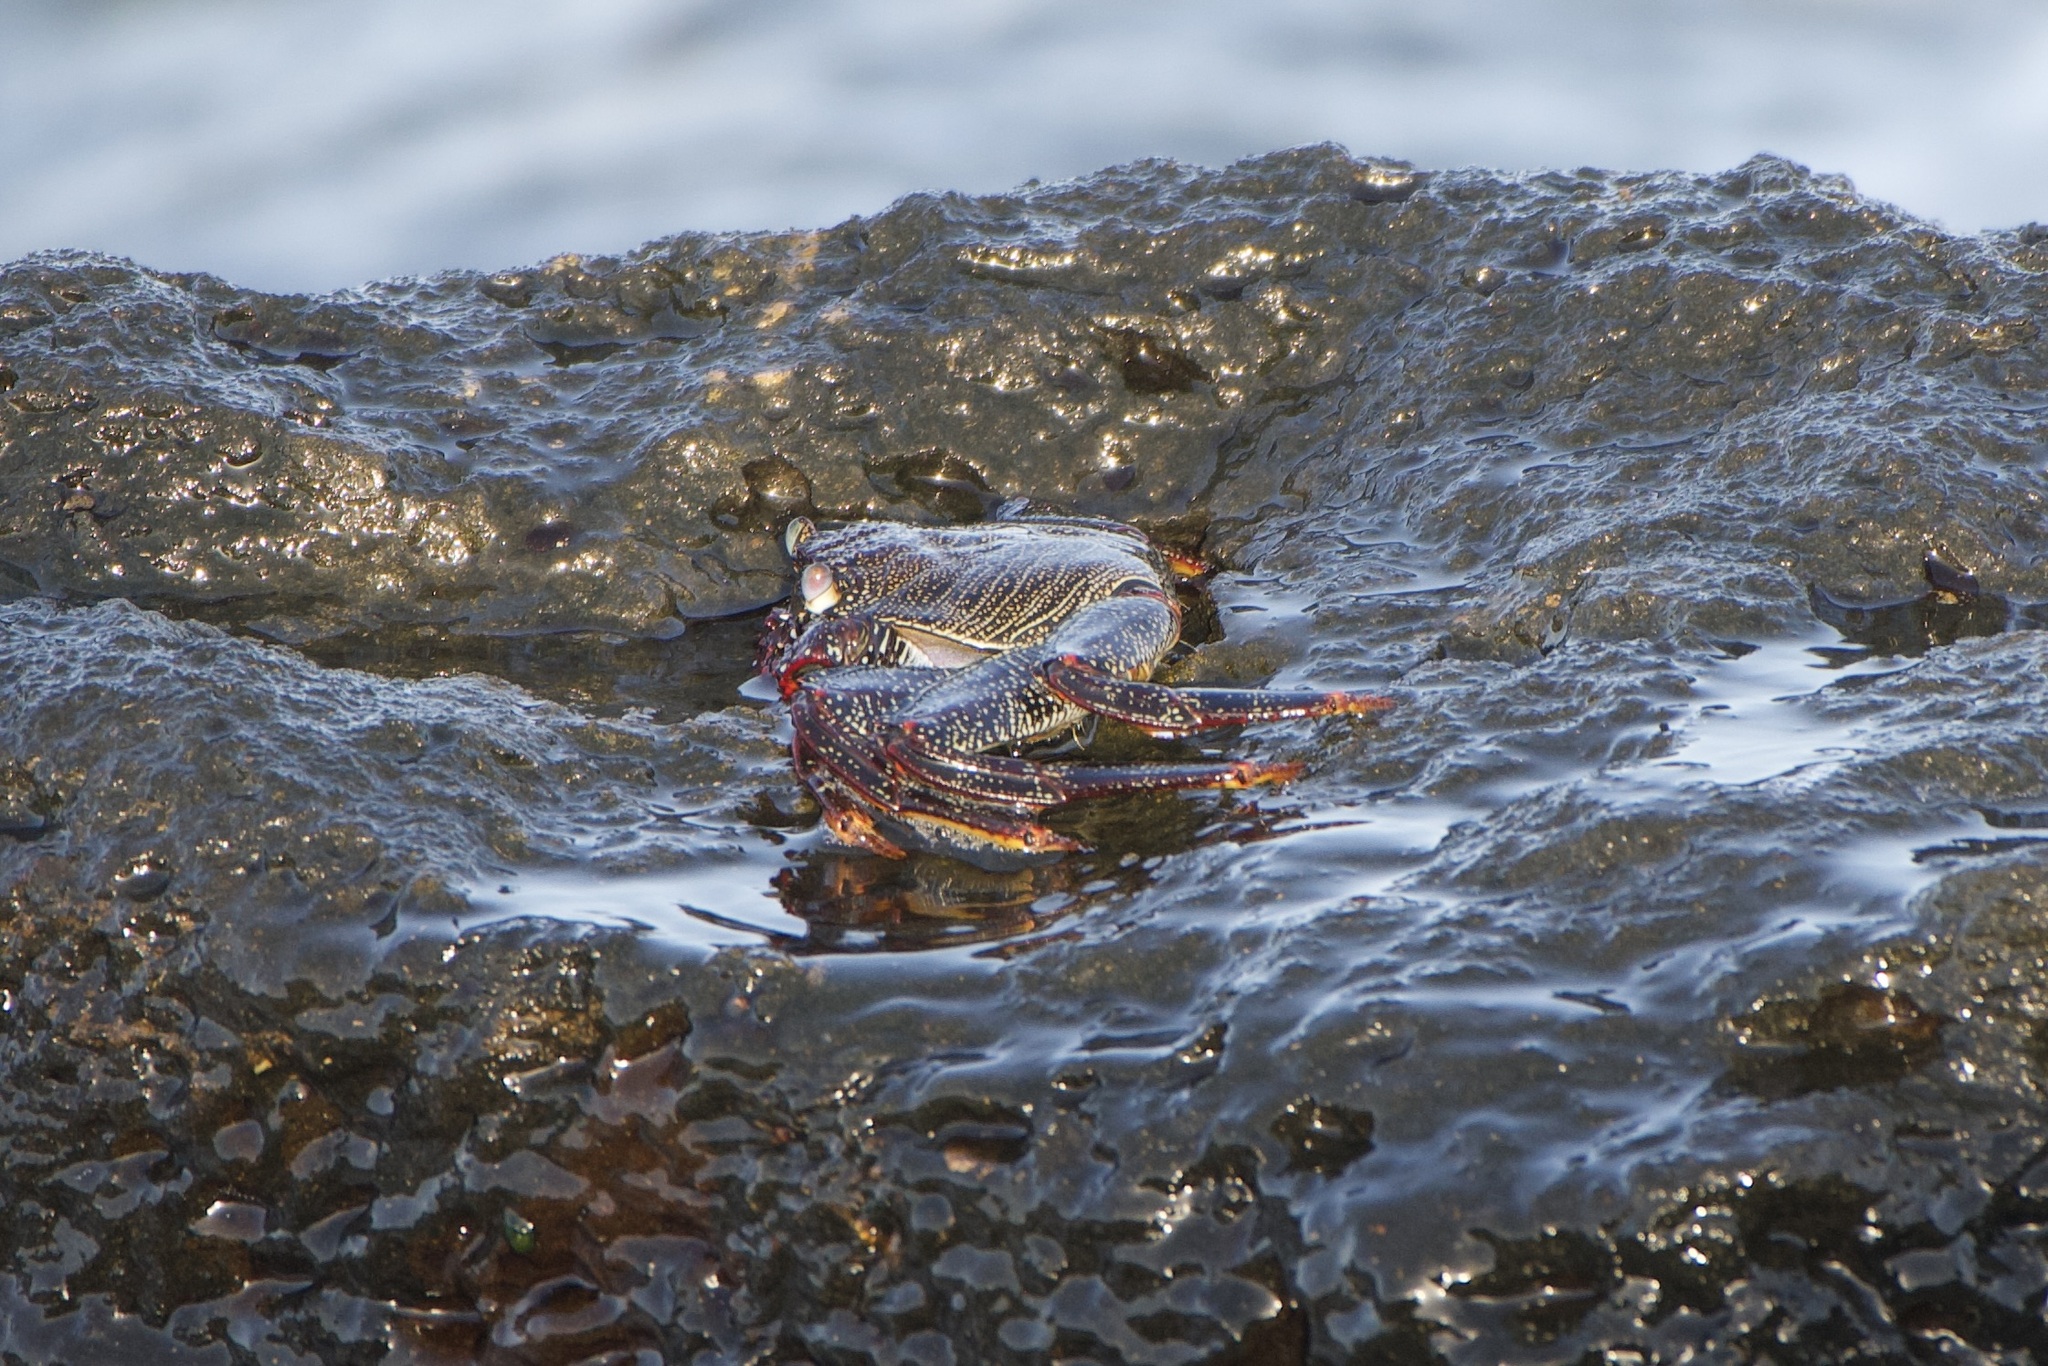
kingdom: Animalia
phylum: Arthropoda
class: Malacostraca
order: Decapoda
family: Grapsidae
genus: Grapsus
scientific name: Grapsus adscensionis
